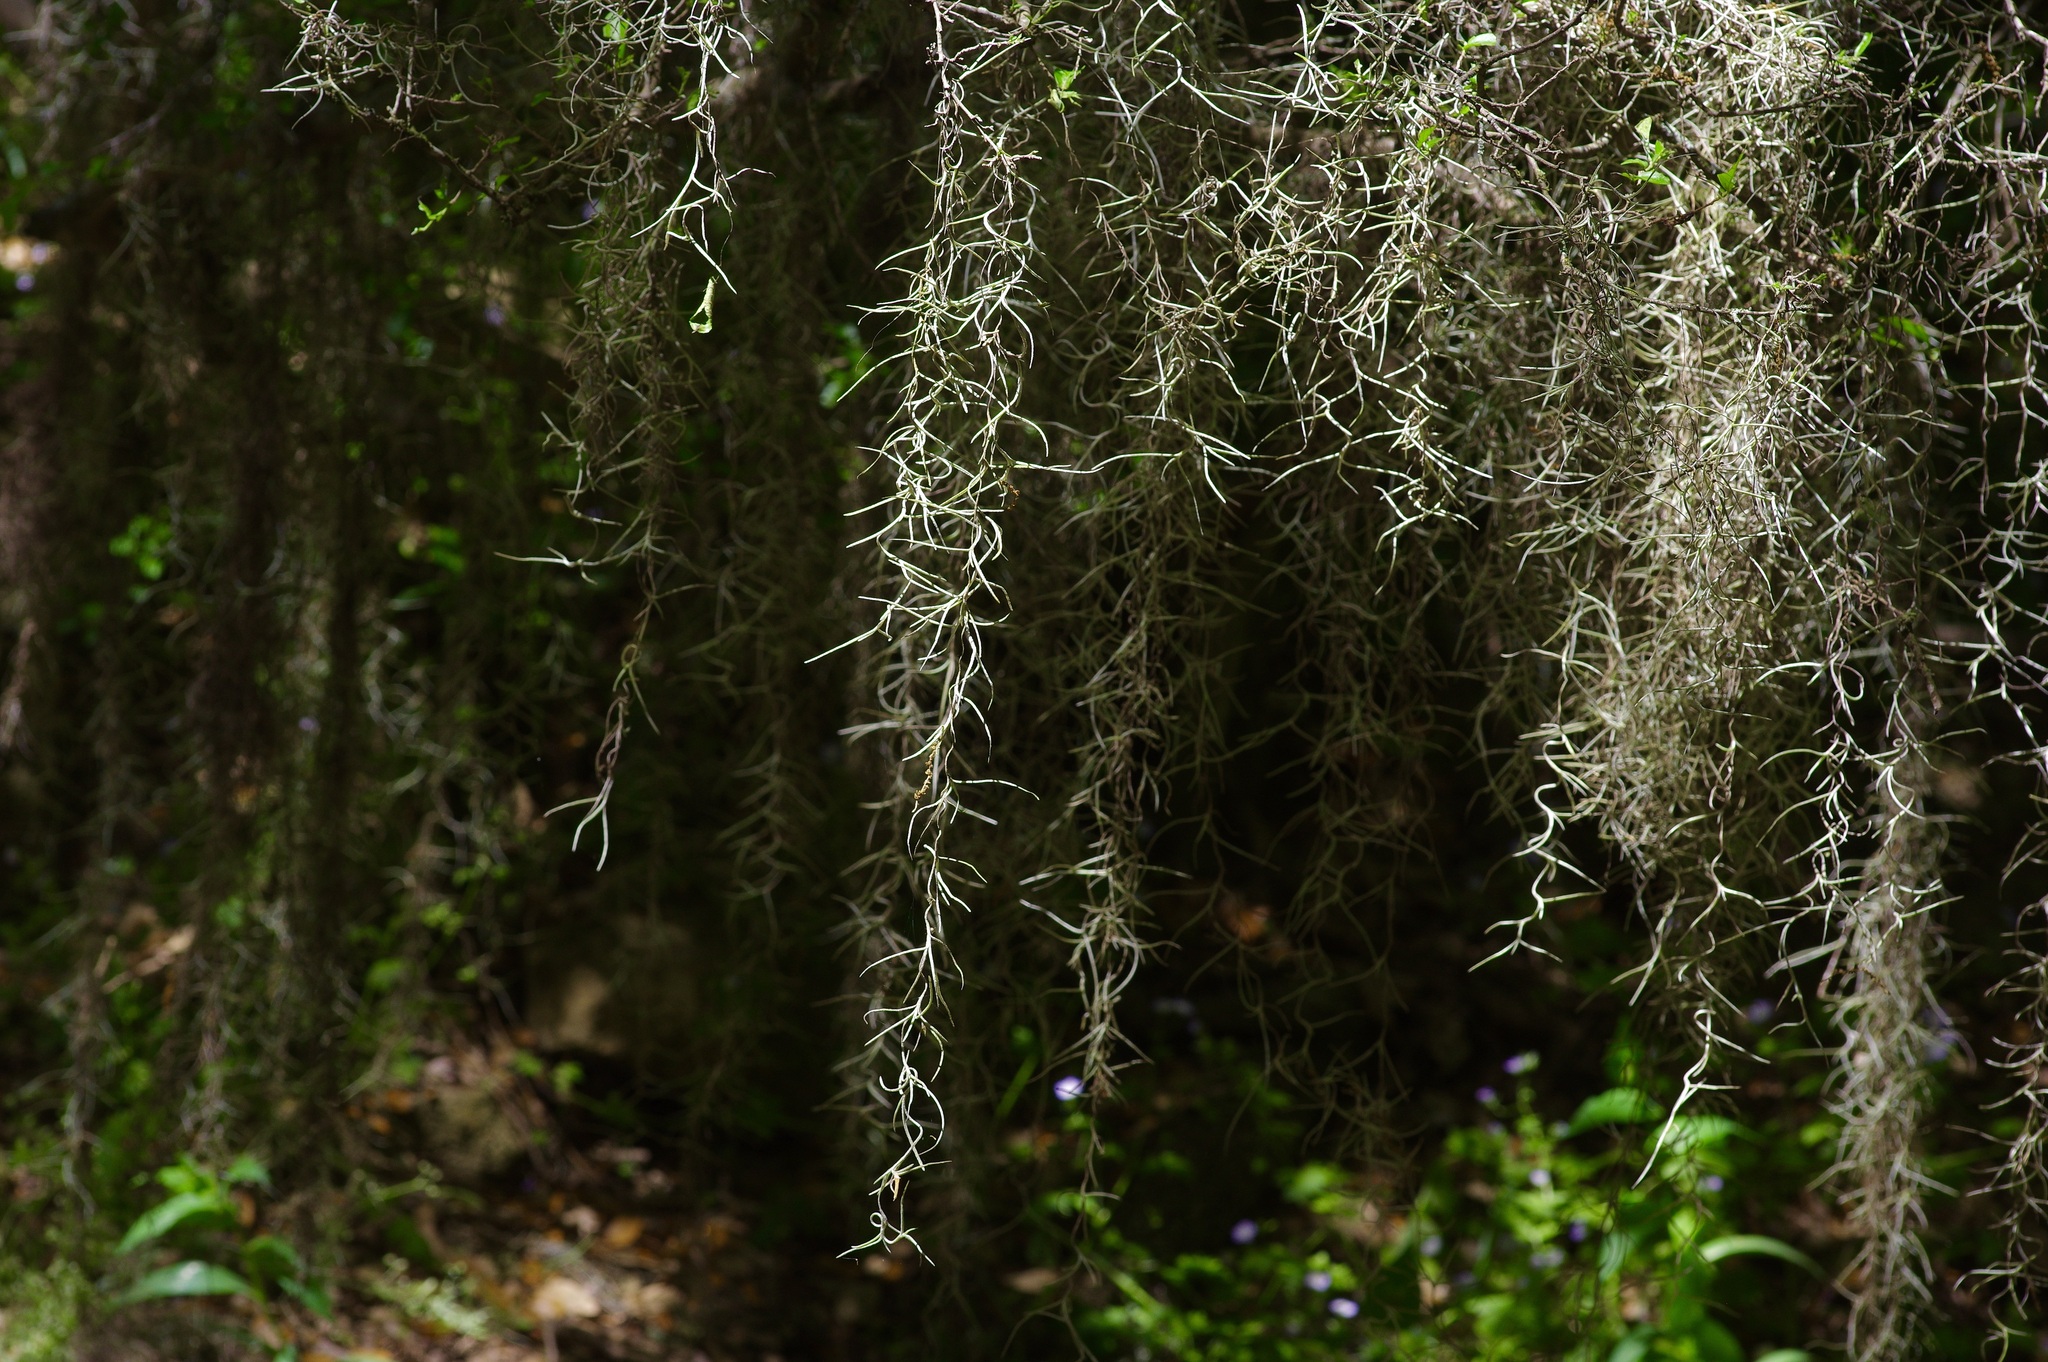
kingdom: Plantae
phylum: Tracheophyta
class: Liliopsida
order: Poales
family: Bromeliaceae
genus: Tillandsia
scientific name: Tillandsia usneoides
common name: Spanish moss
